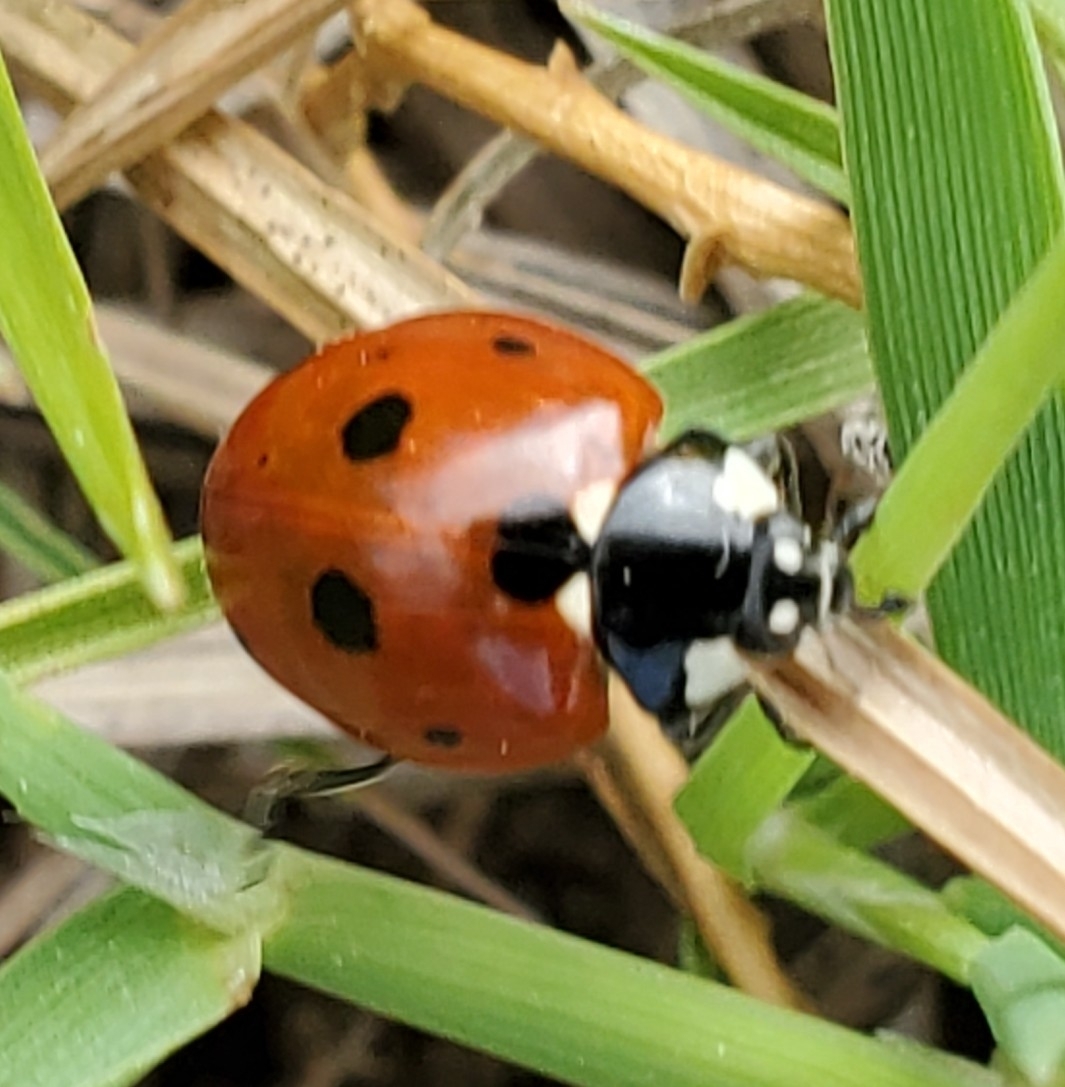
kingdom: Animalia
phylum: Arthropoda
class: Insecta
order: Coleoptera
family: Coccinellidae
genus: Coccinella
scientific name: Coccinella septempunctata
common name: Sevenspotted lady beetle
